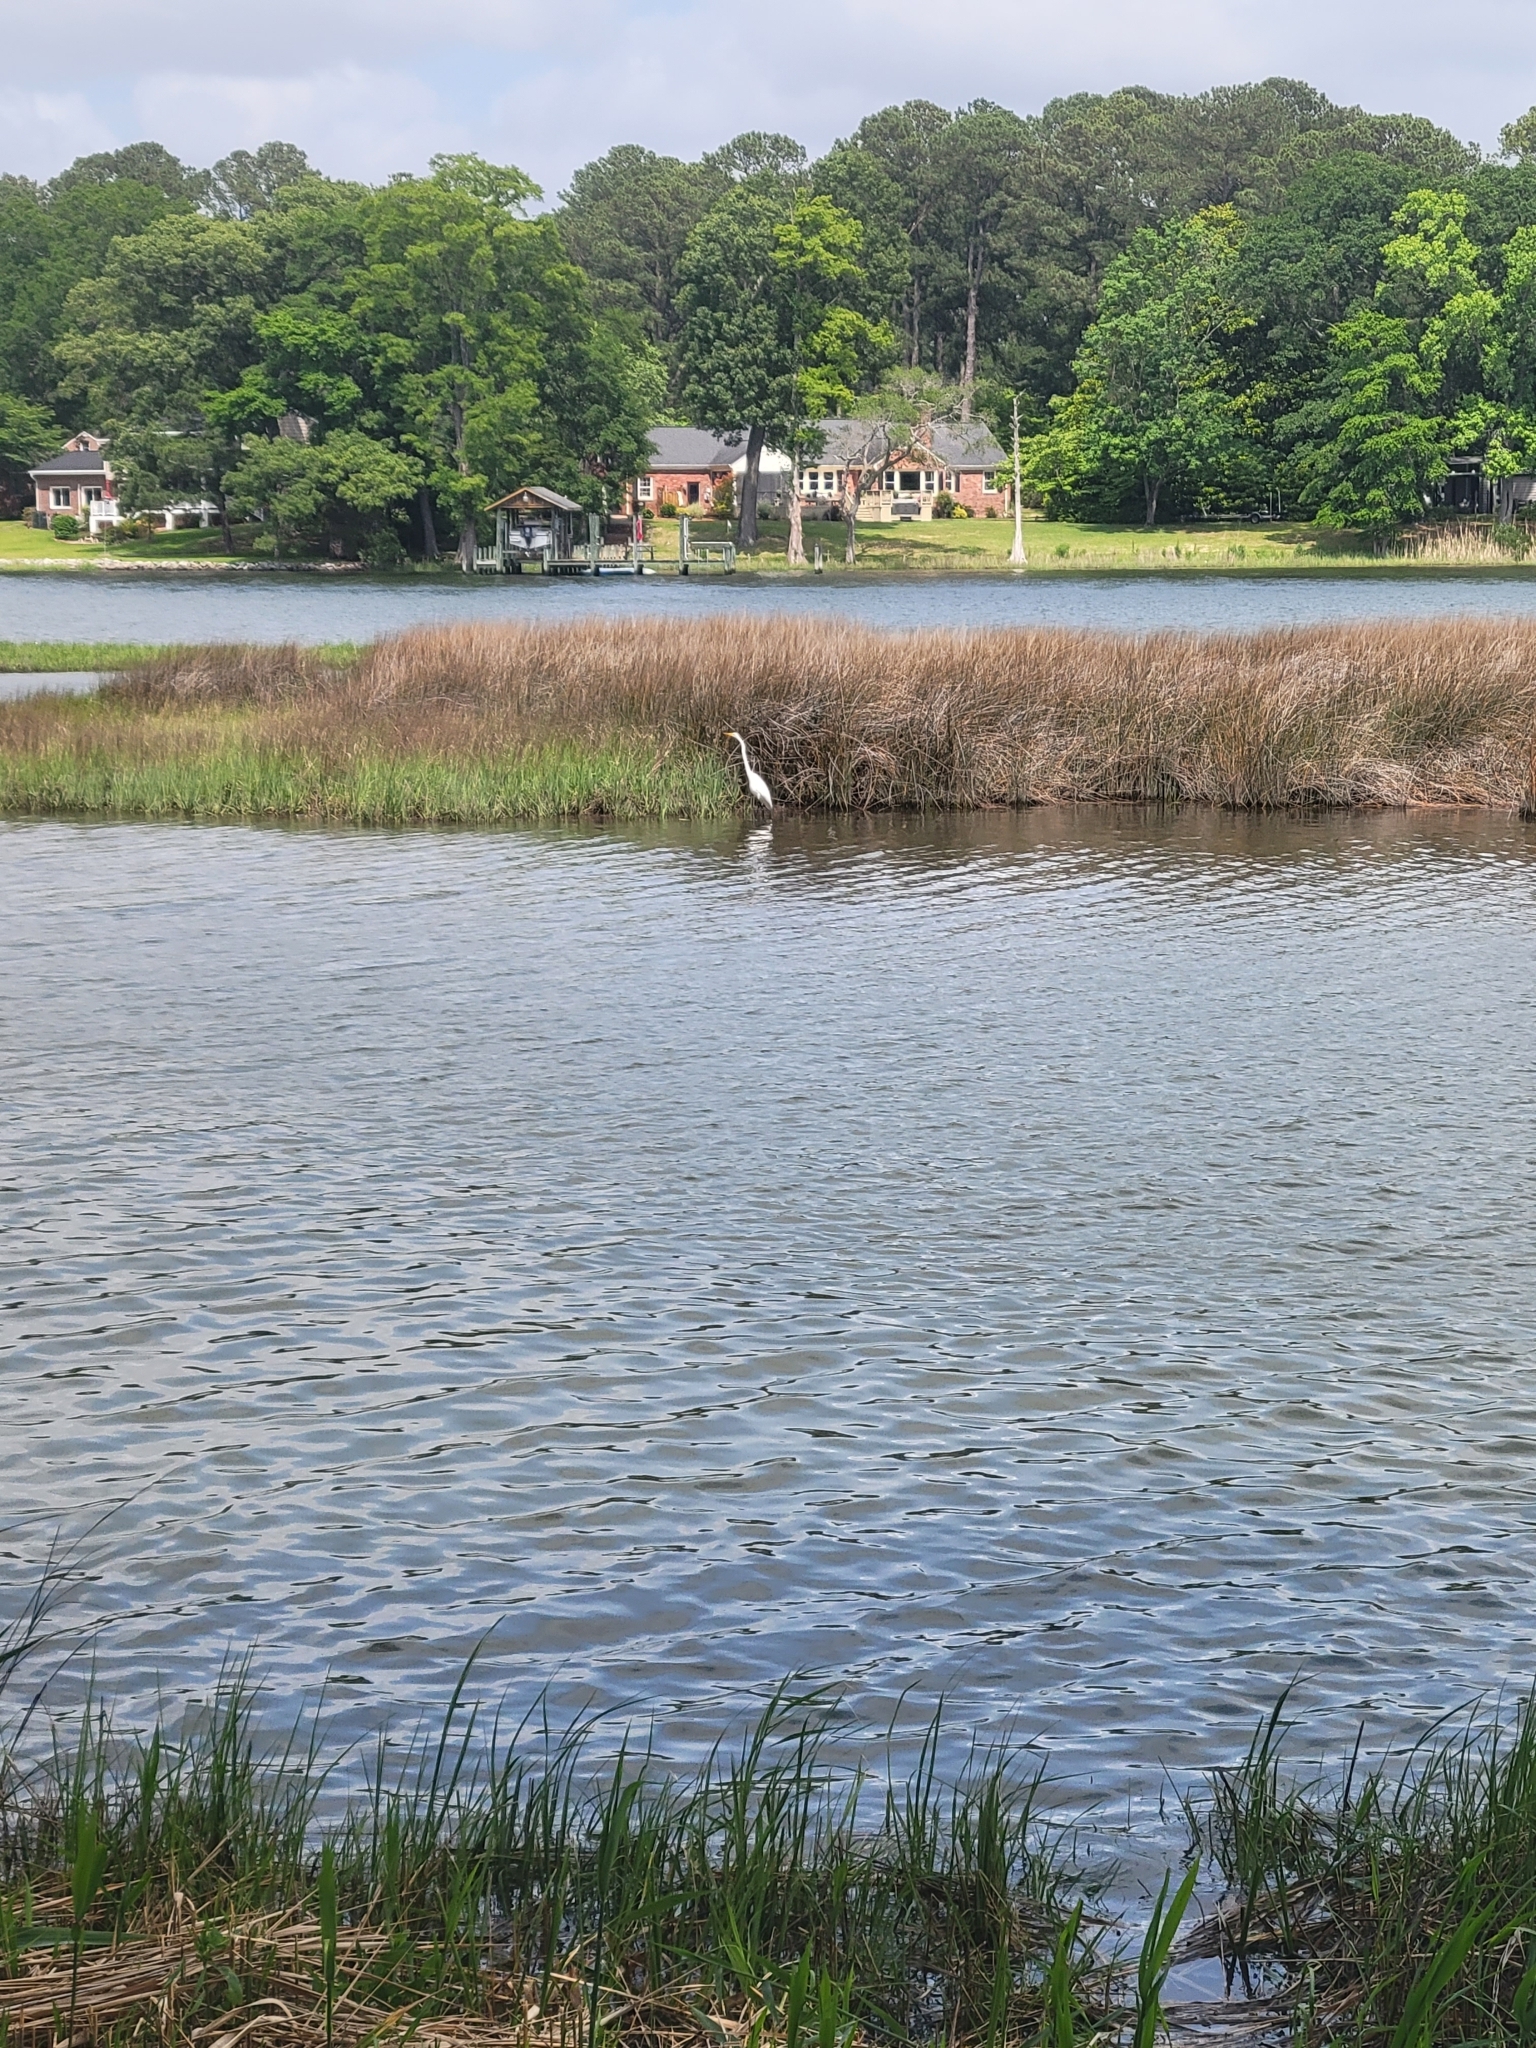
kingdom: Animalia
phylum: Chordata
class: Aves
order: Pelecaniformes
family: Ardeidae
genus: Ardea
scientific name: Ardea alba
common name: Great egret
